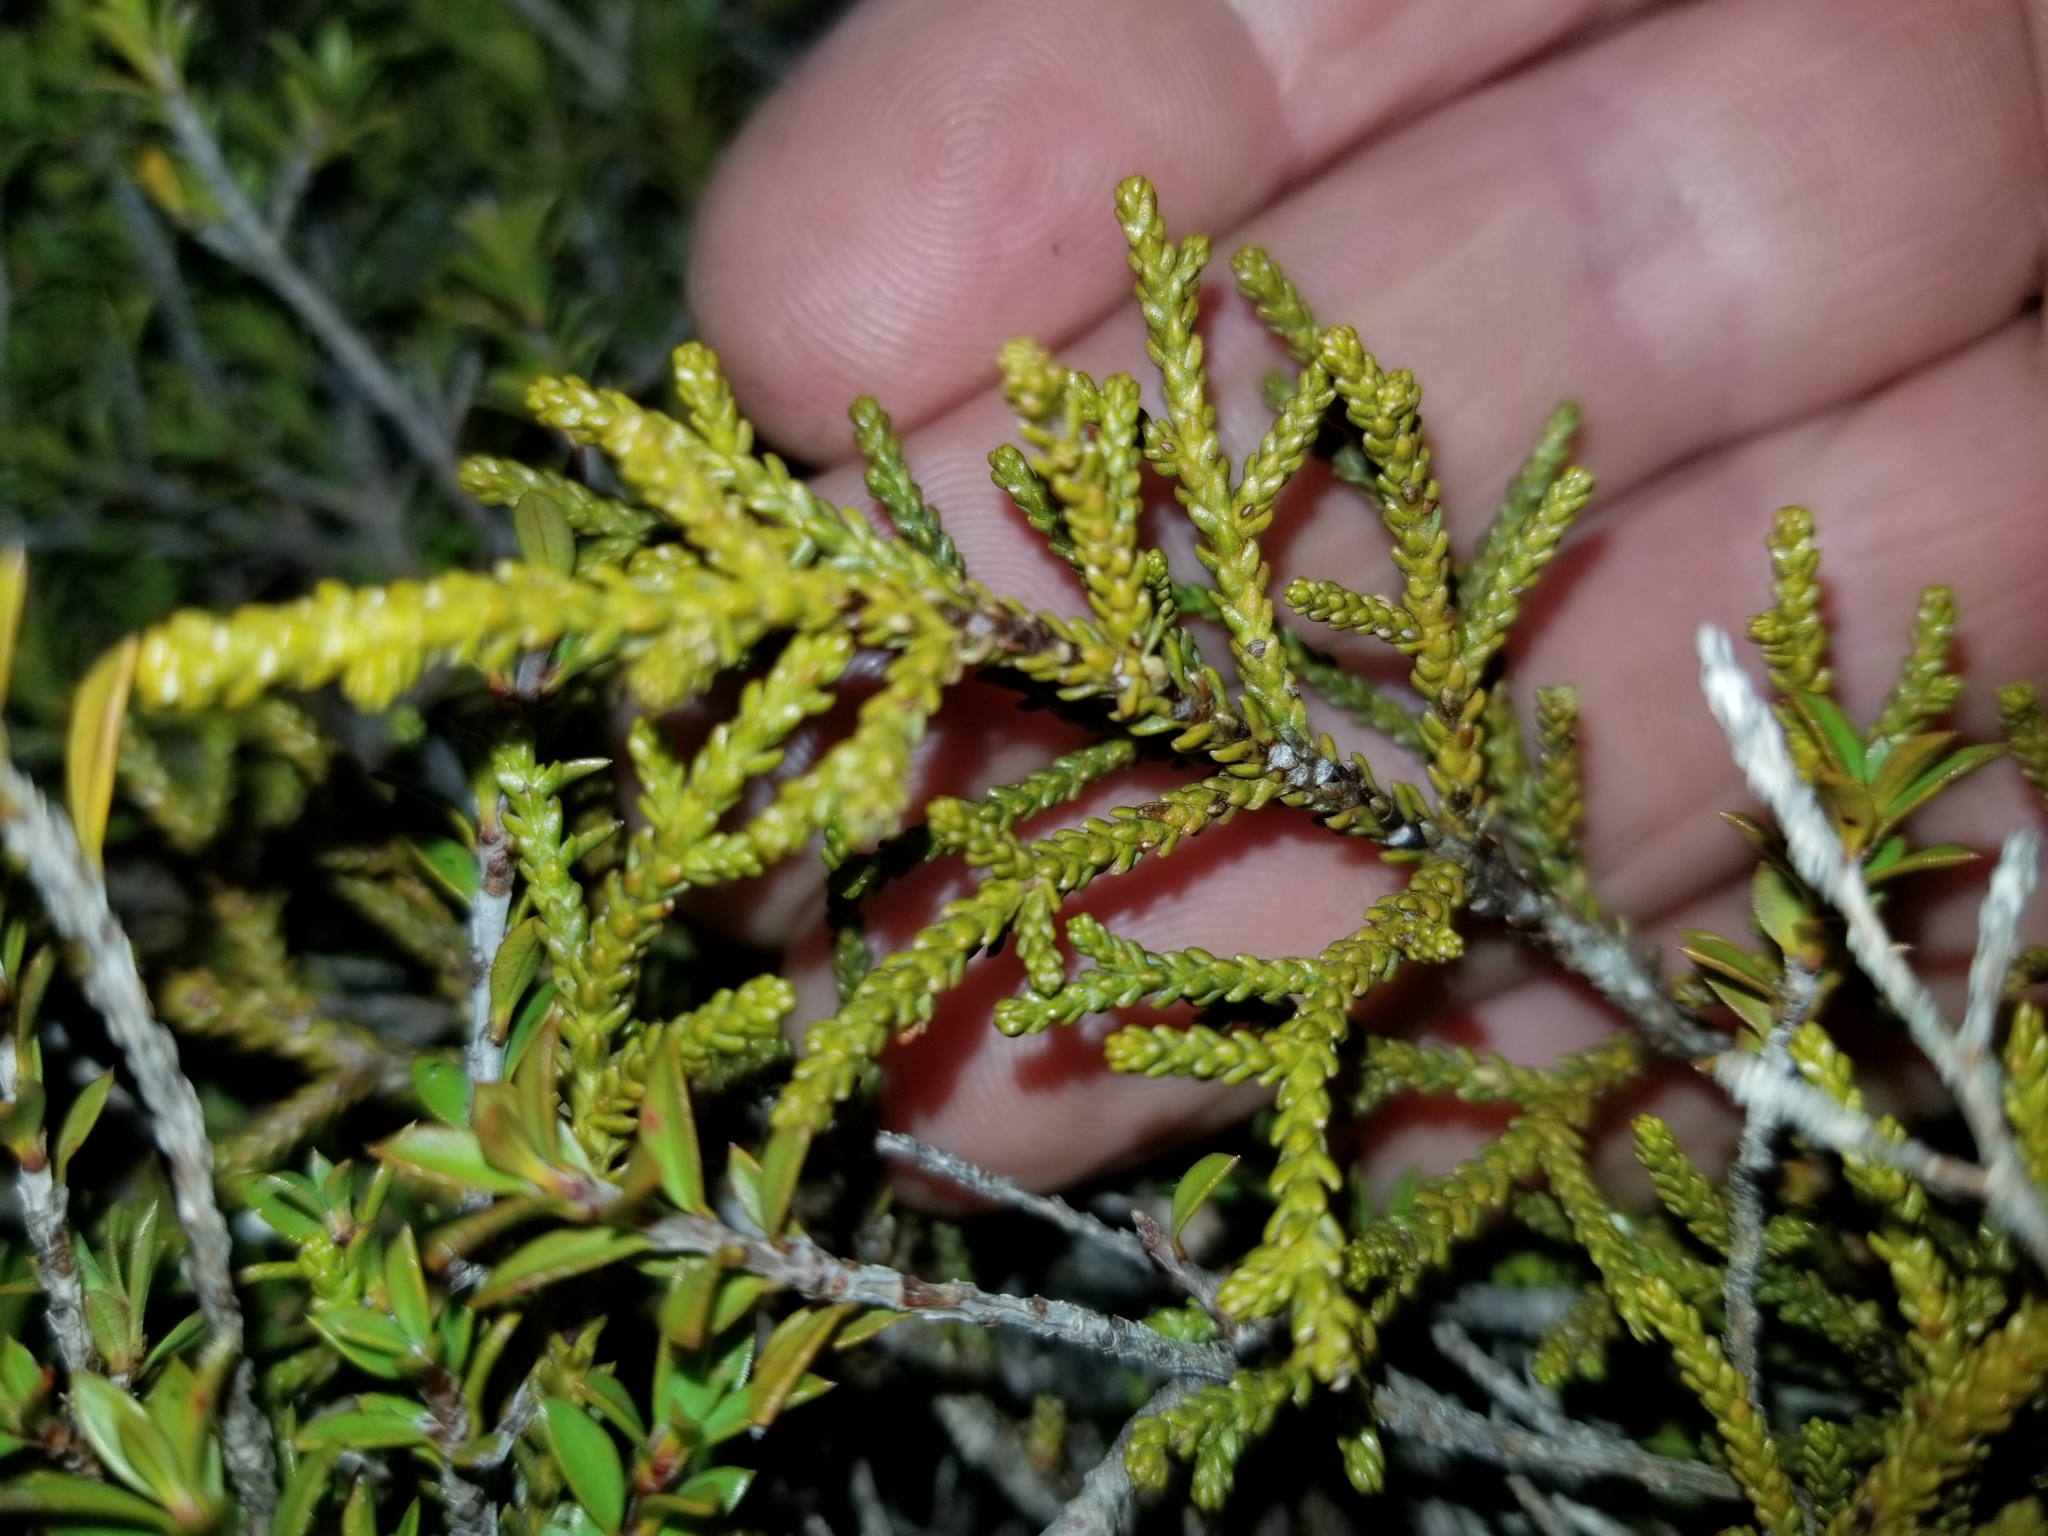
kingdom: Plantae
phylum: Tracheophyta
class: Pinopsida
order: Pinales
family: Podocarpaceae
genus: Halocarpus
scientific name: Halocarpus biformis
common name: Alpine tarwood
